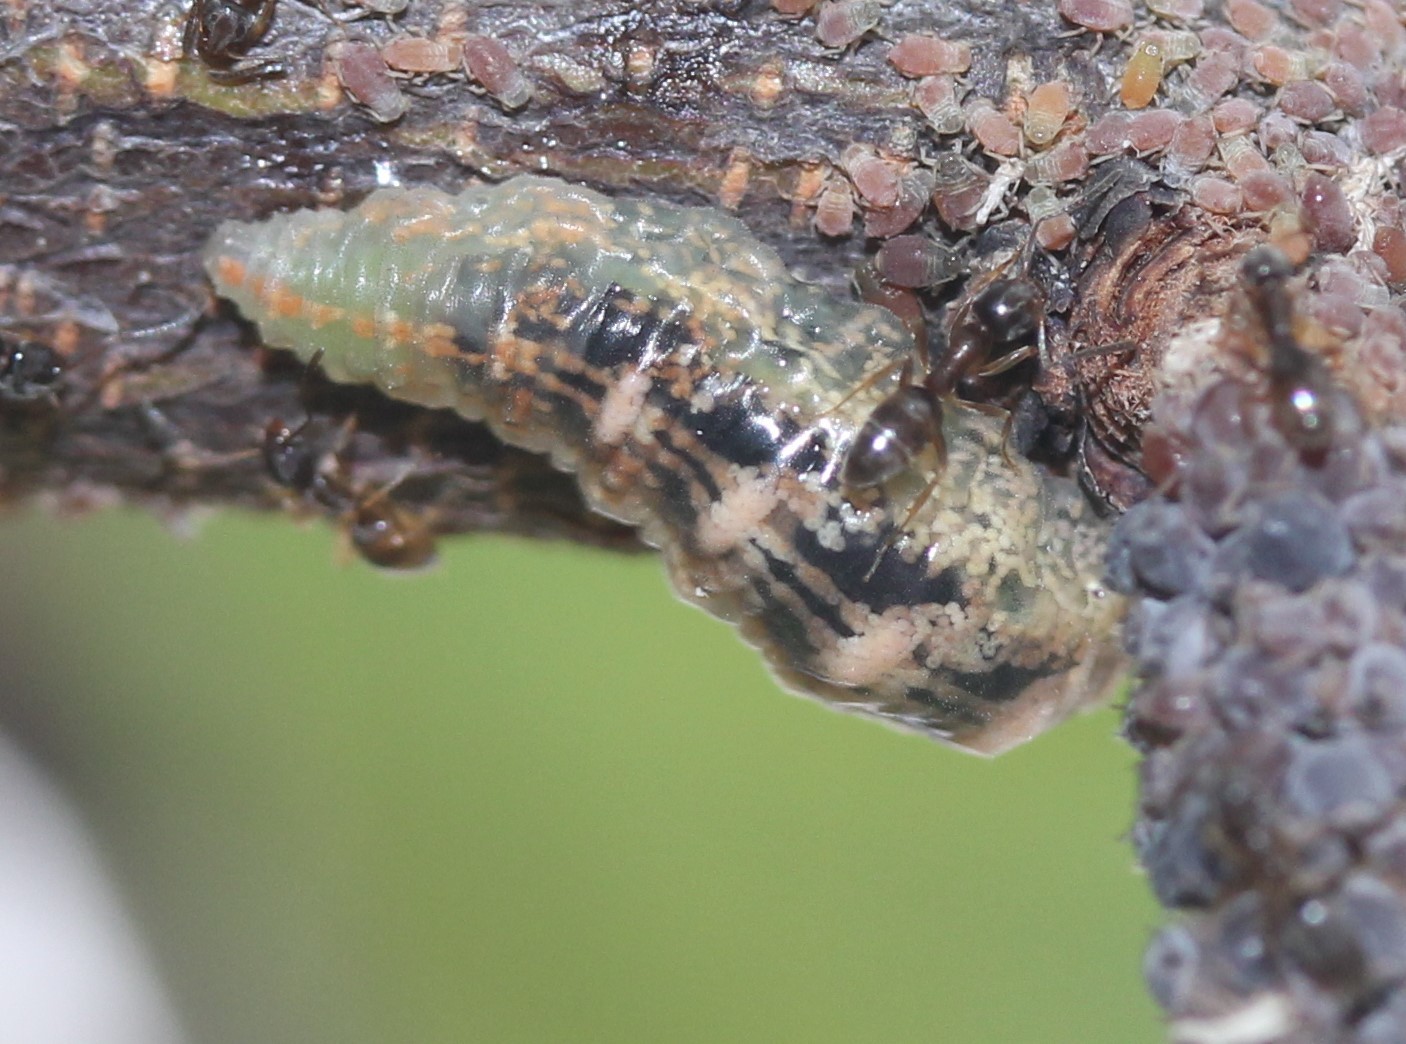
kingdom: Animalia
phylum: Arthropoda
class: Insecta
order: Diptera
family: Syrphidae
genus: Eupeodes
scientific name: Eupeodes pomus
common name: Short-tailed aphideater
